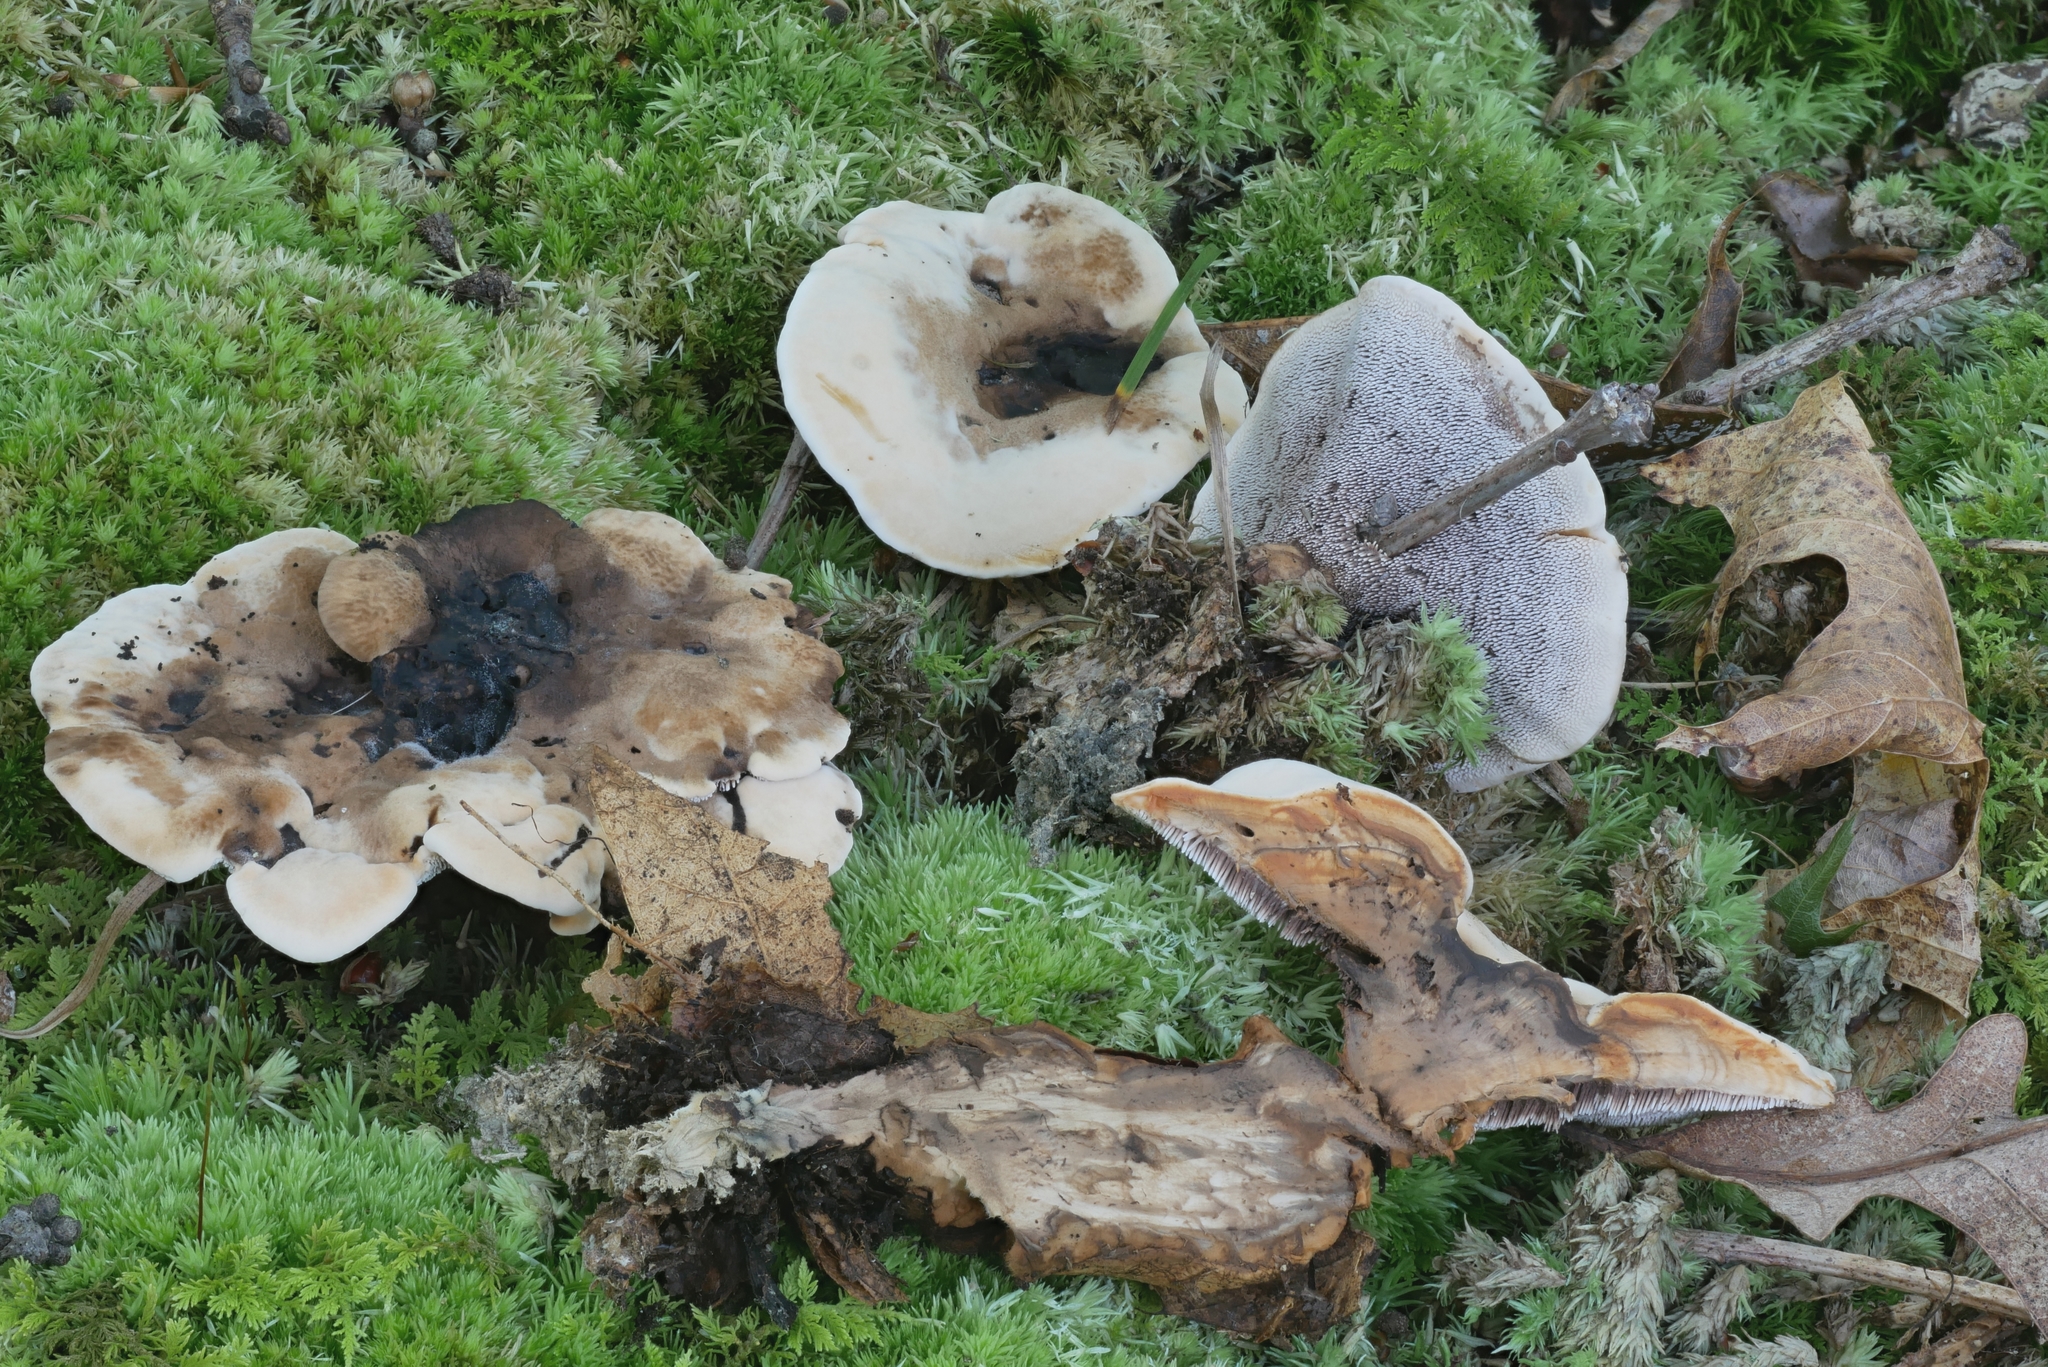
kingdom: Fungi
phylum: Basidiomycota
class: Agaricomycetes
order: Thelephorales
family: Bankeraceae
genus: Hydnellum
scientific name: Hydnellum aurantiacum
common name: Orange tooth
